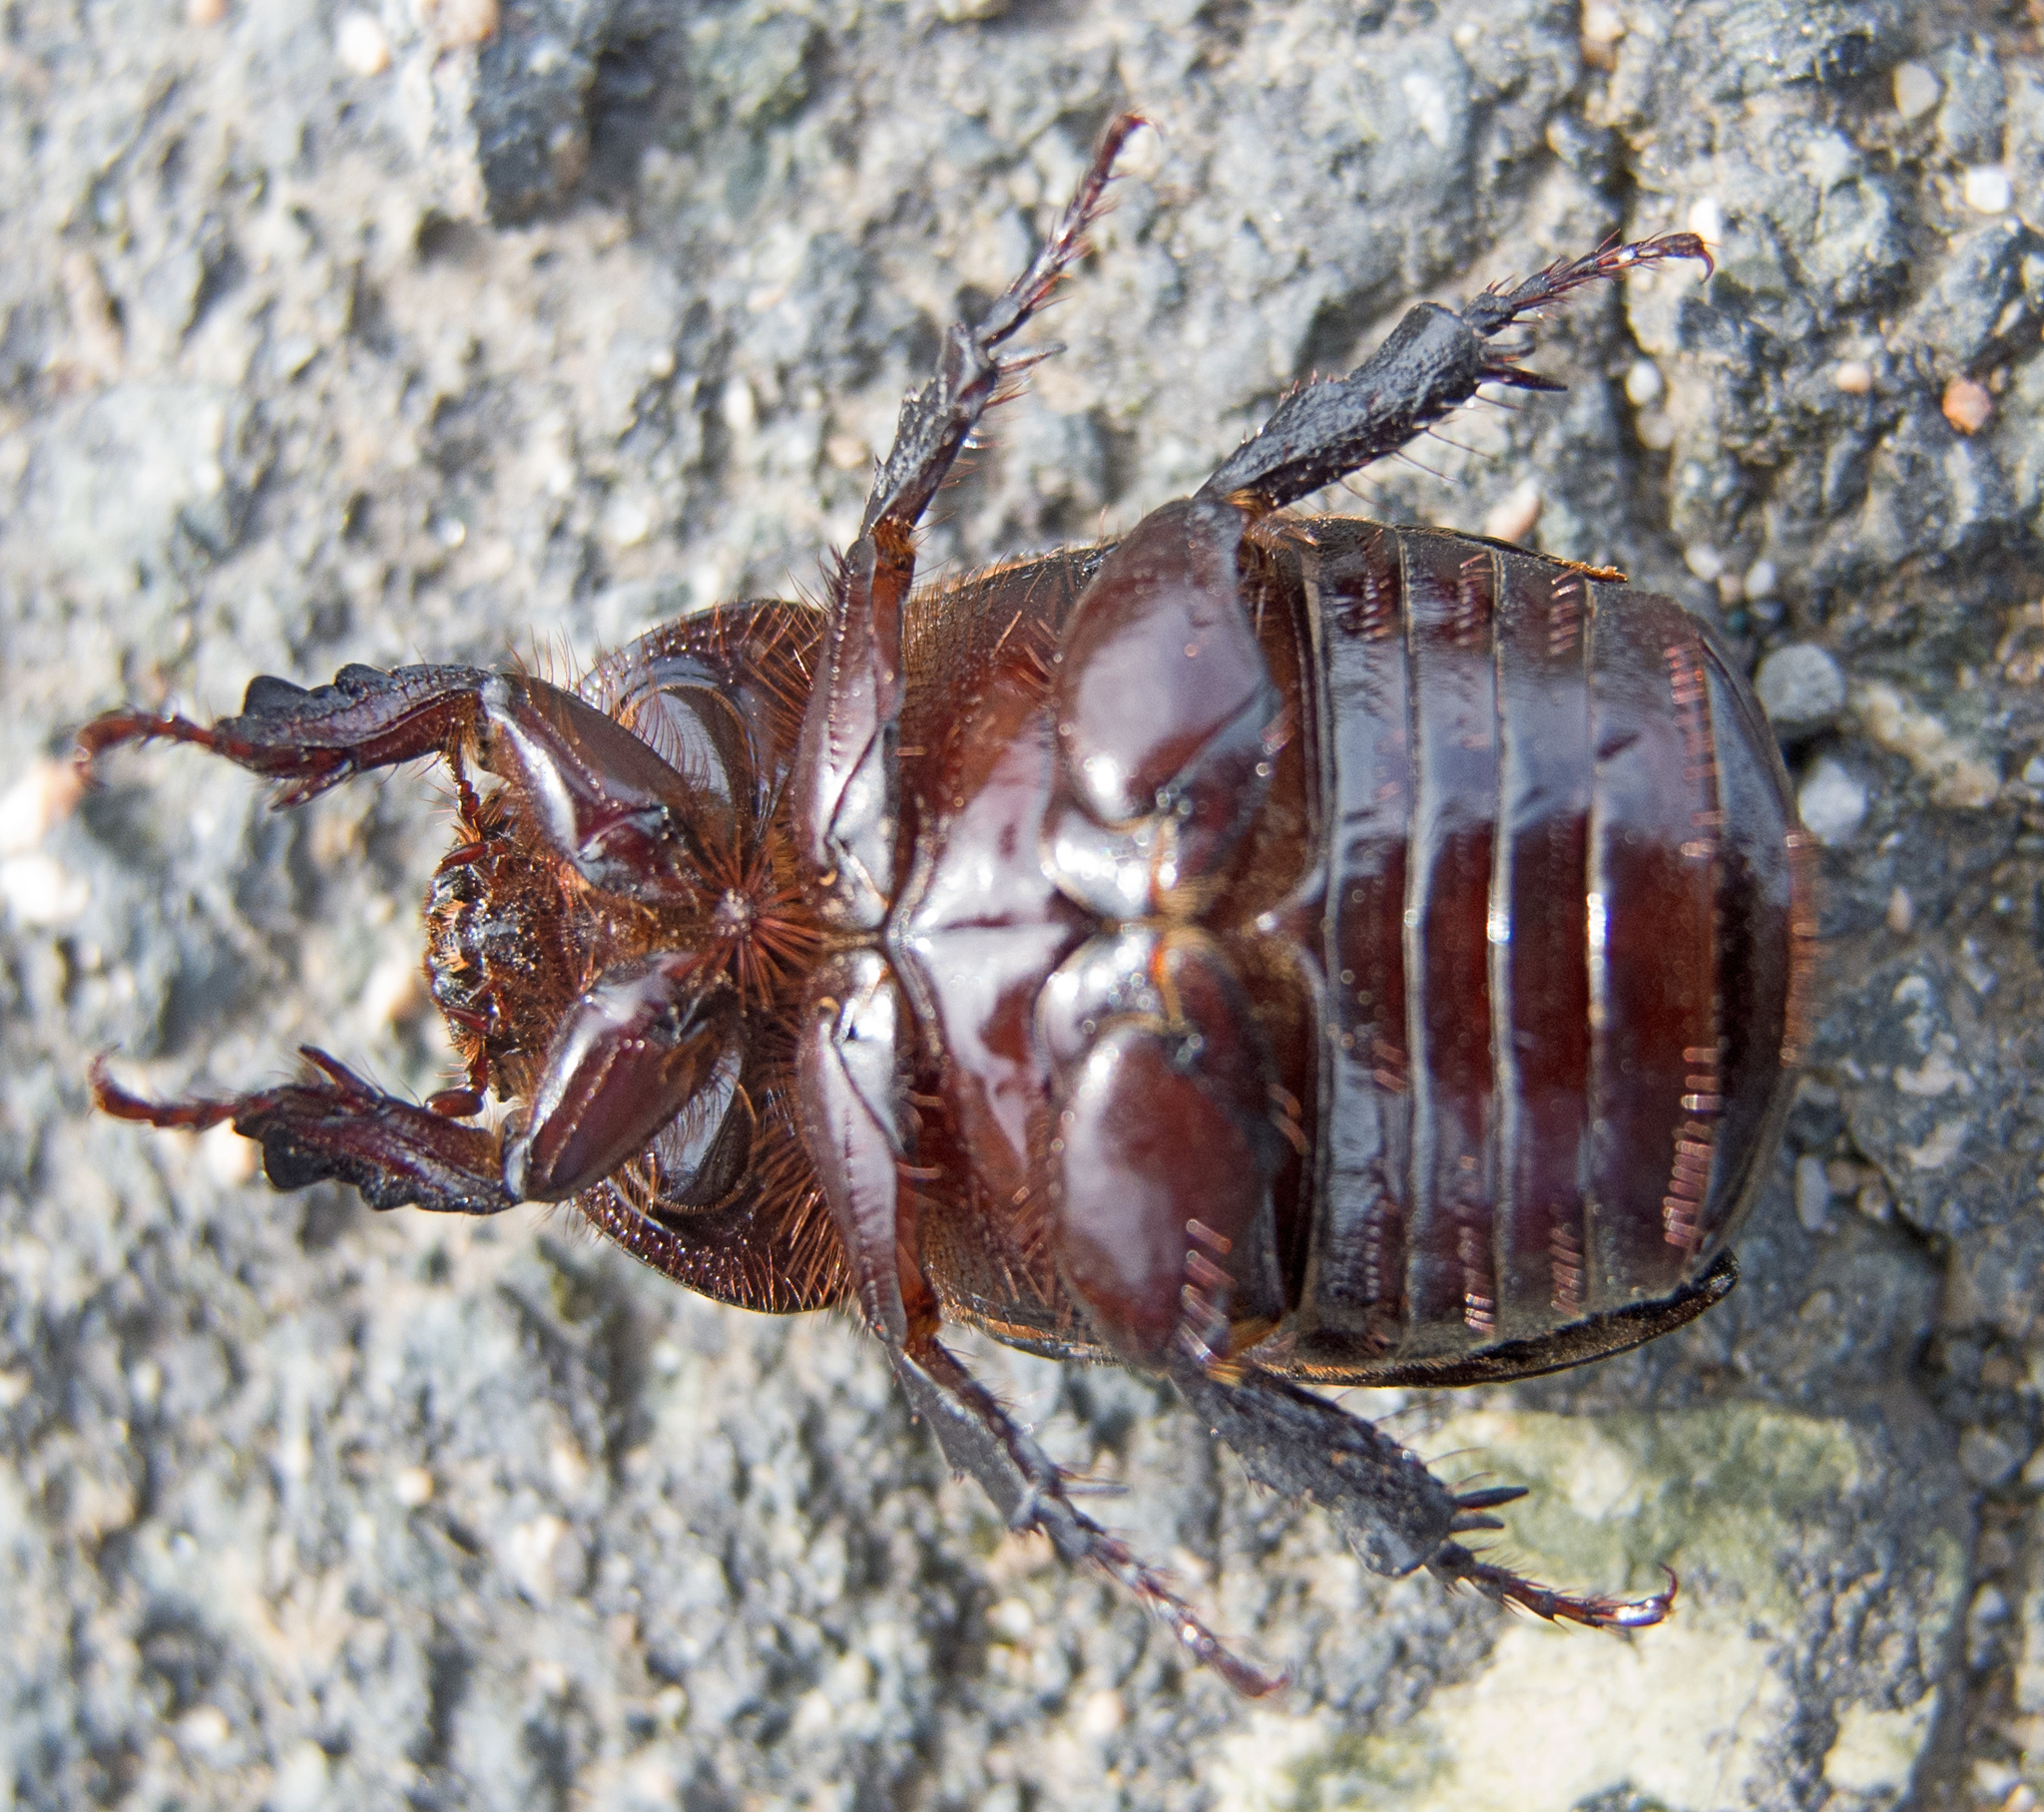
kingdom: Animalia
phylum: Arthropoda
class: Insecta
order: Coleoptera
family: Scarabaeidae
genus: Pentodon
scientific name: Pentodon idiota
